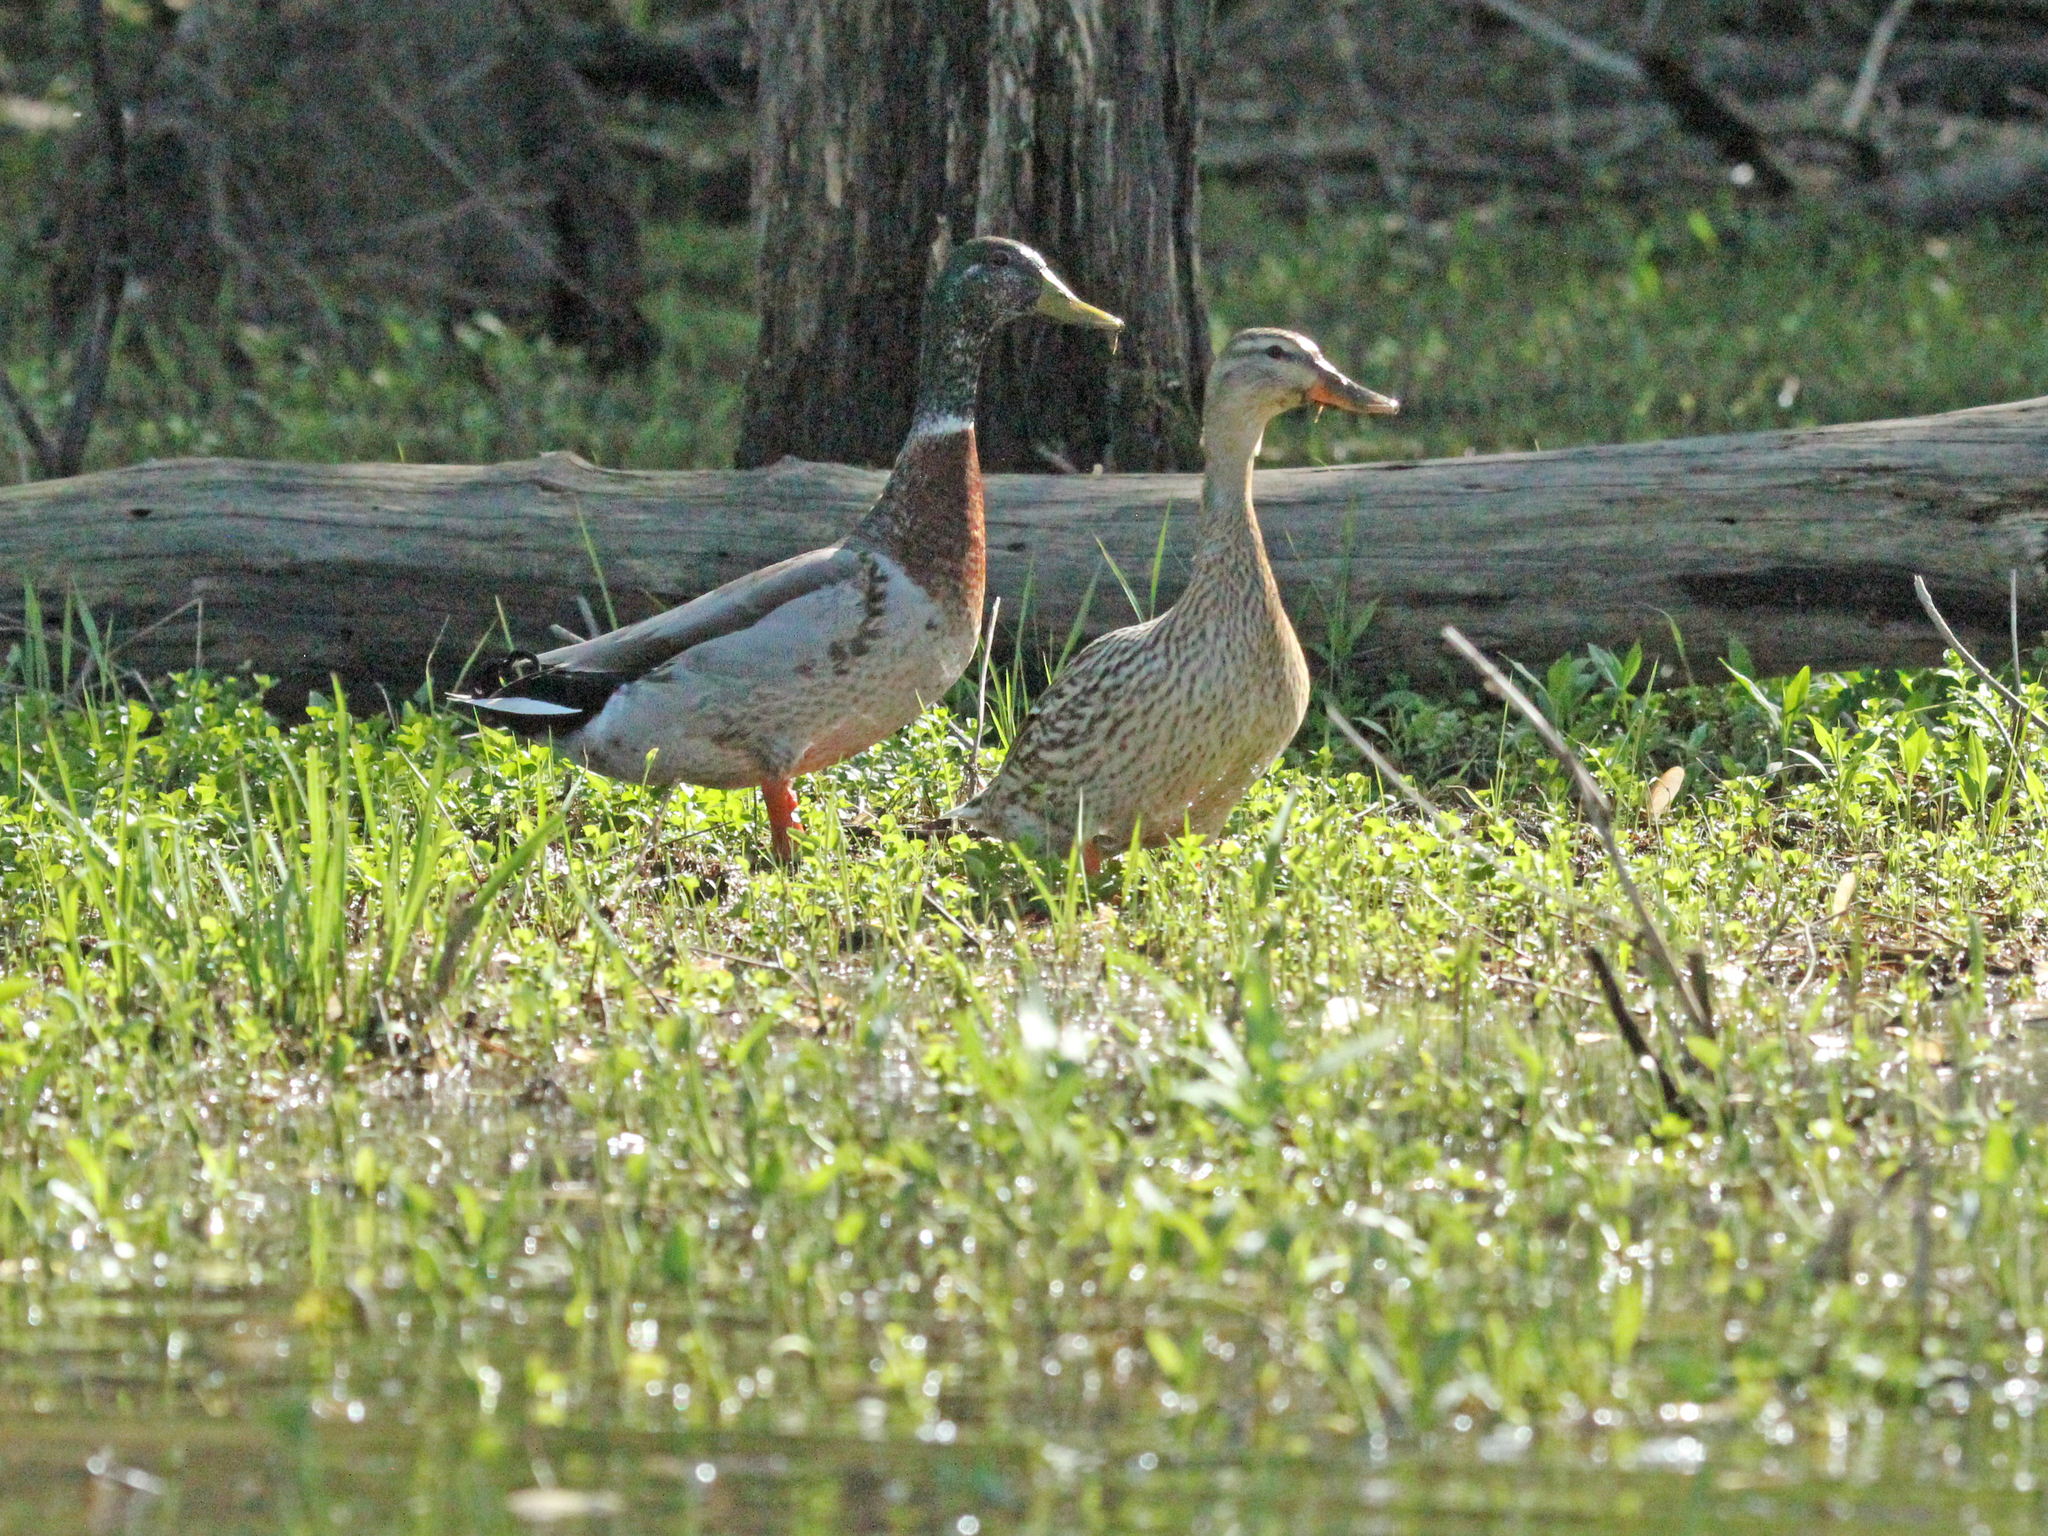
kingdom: Animalia
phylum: Chordata
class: Aves
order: Anseriformes
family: Anatidae
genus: Anas
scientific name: Anas platyrhynchos
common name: Mallard
